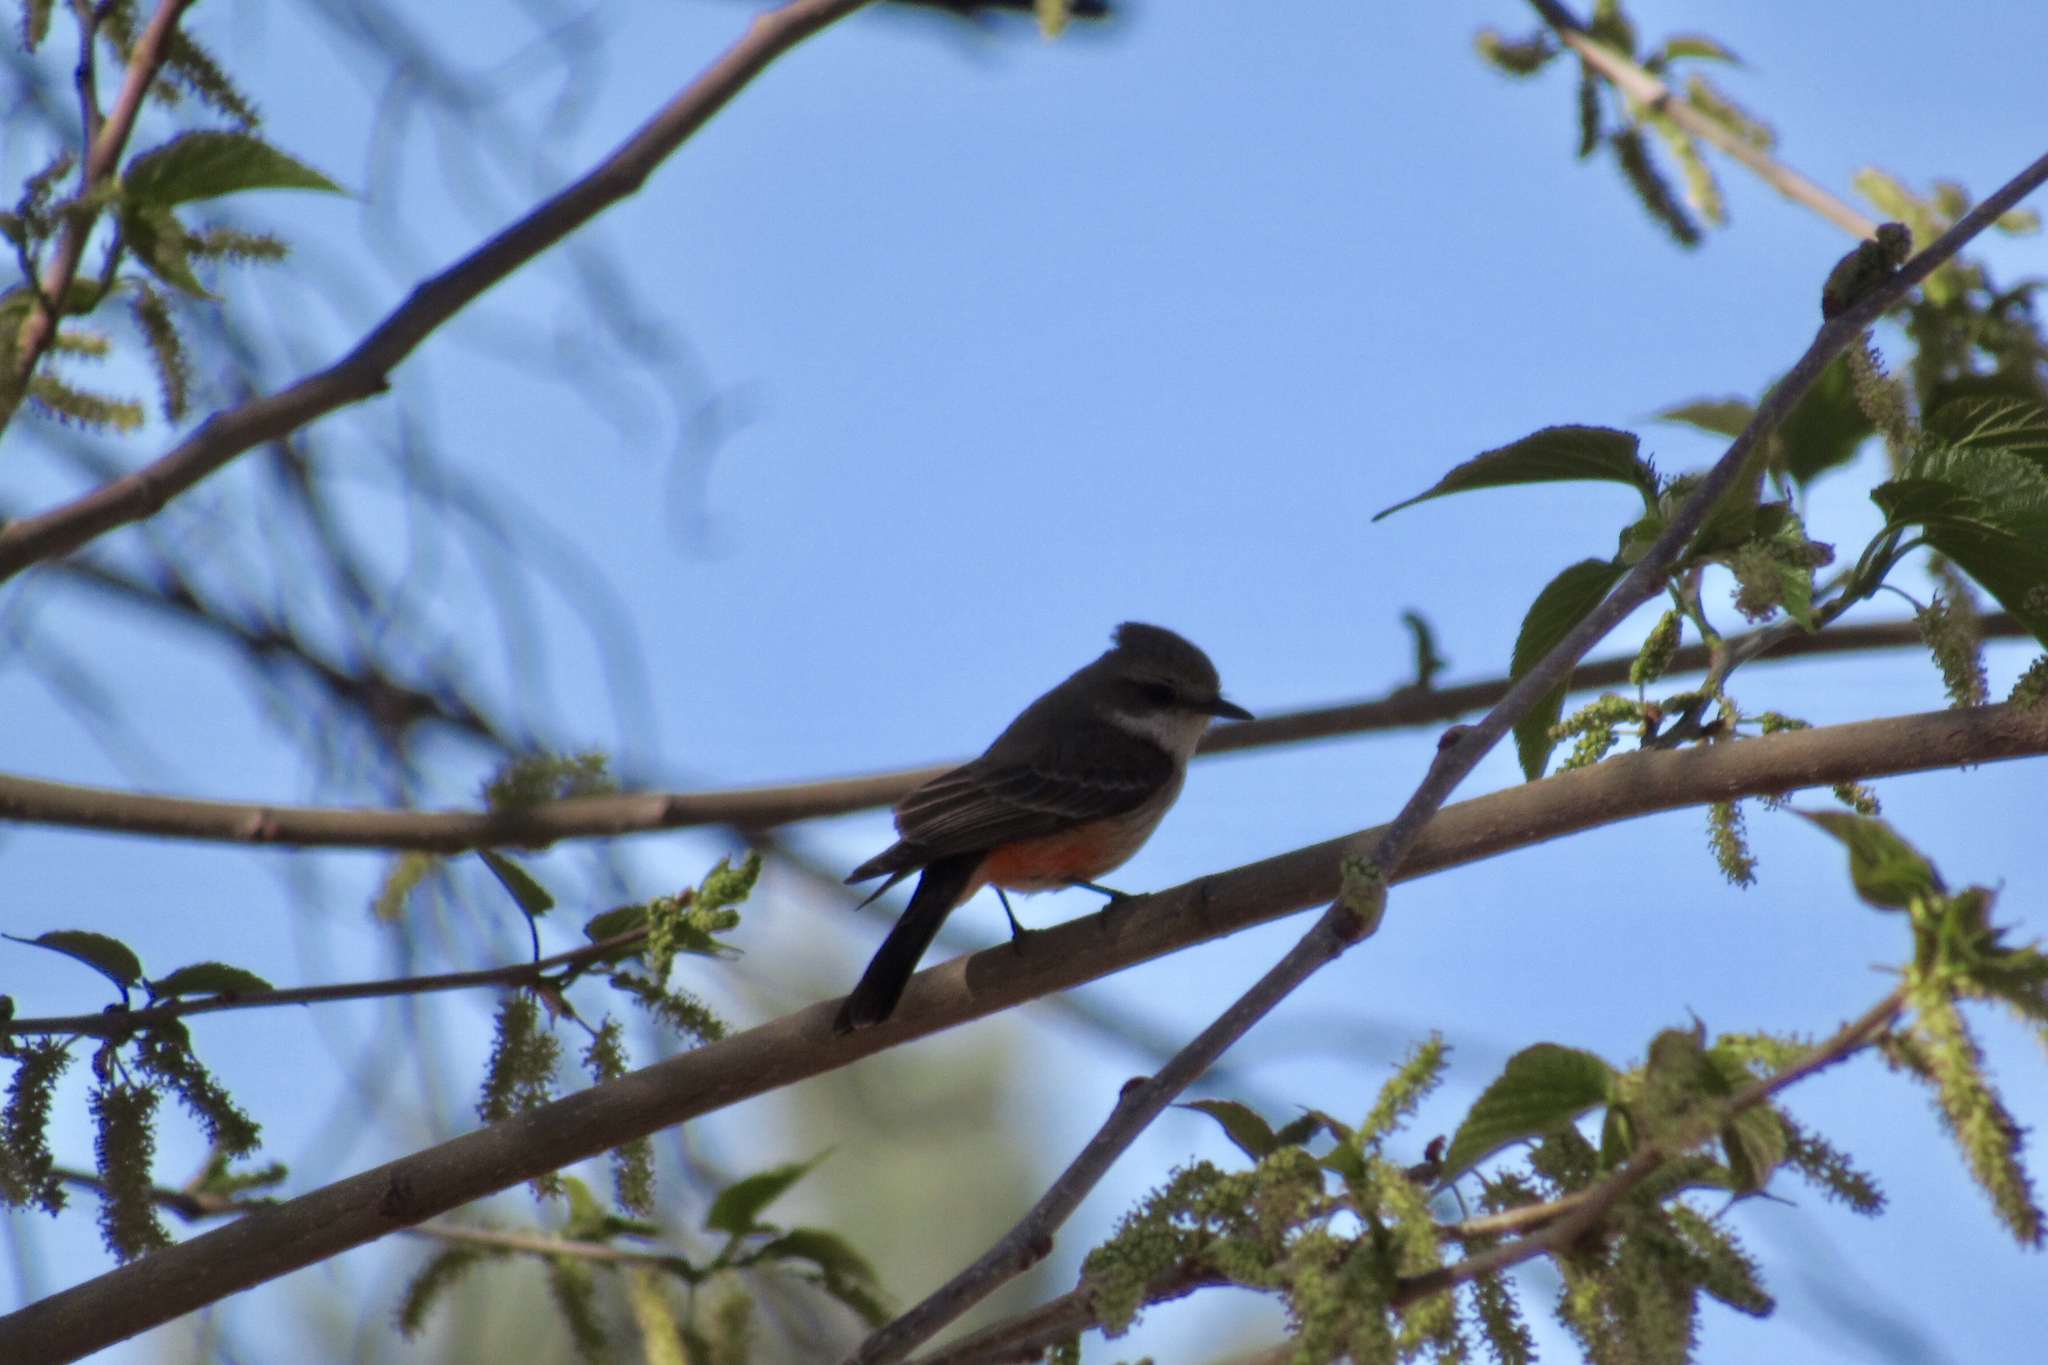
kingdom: Animalia
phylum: Chordata
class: Aves
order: Passeriformes
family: Tyrannidae
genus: Pyrocephalus
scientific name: Pyrocephalus rubinus
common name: Vermilion flycatcher
